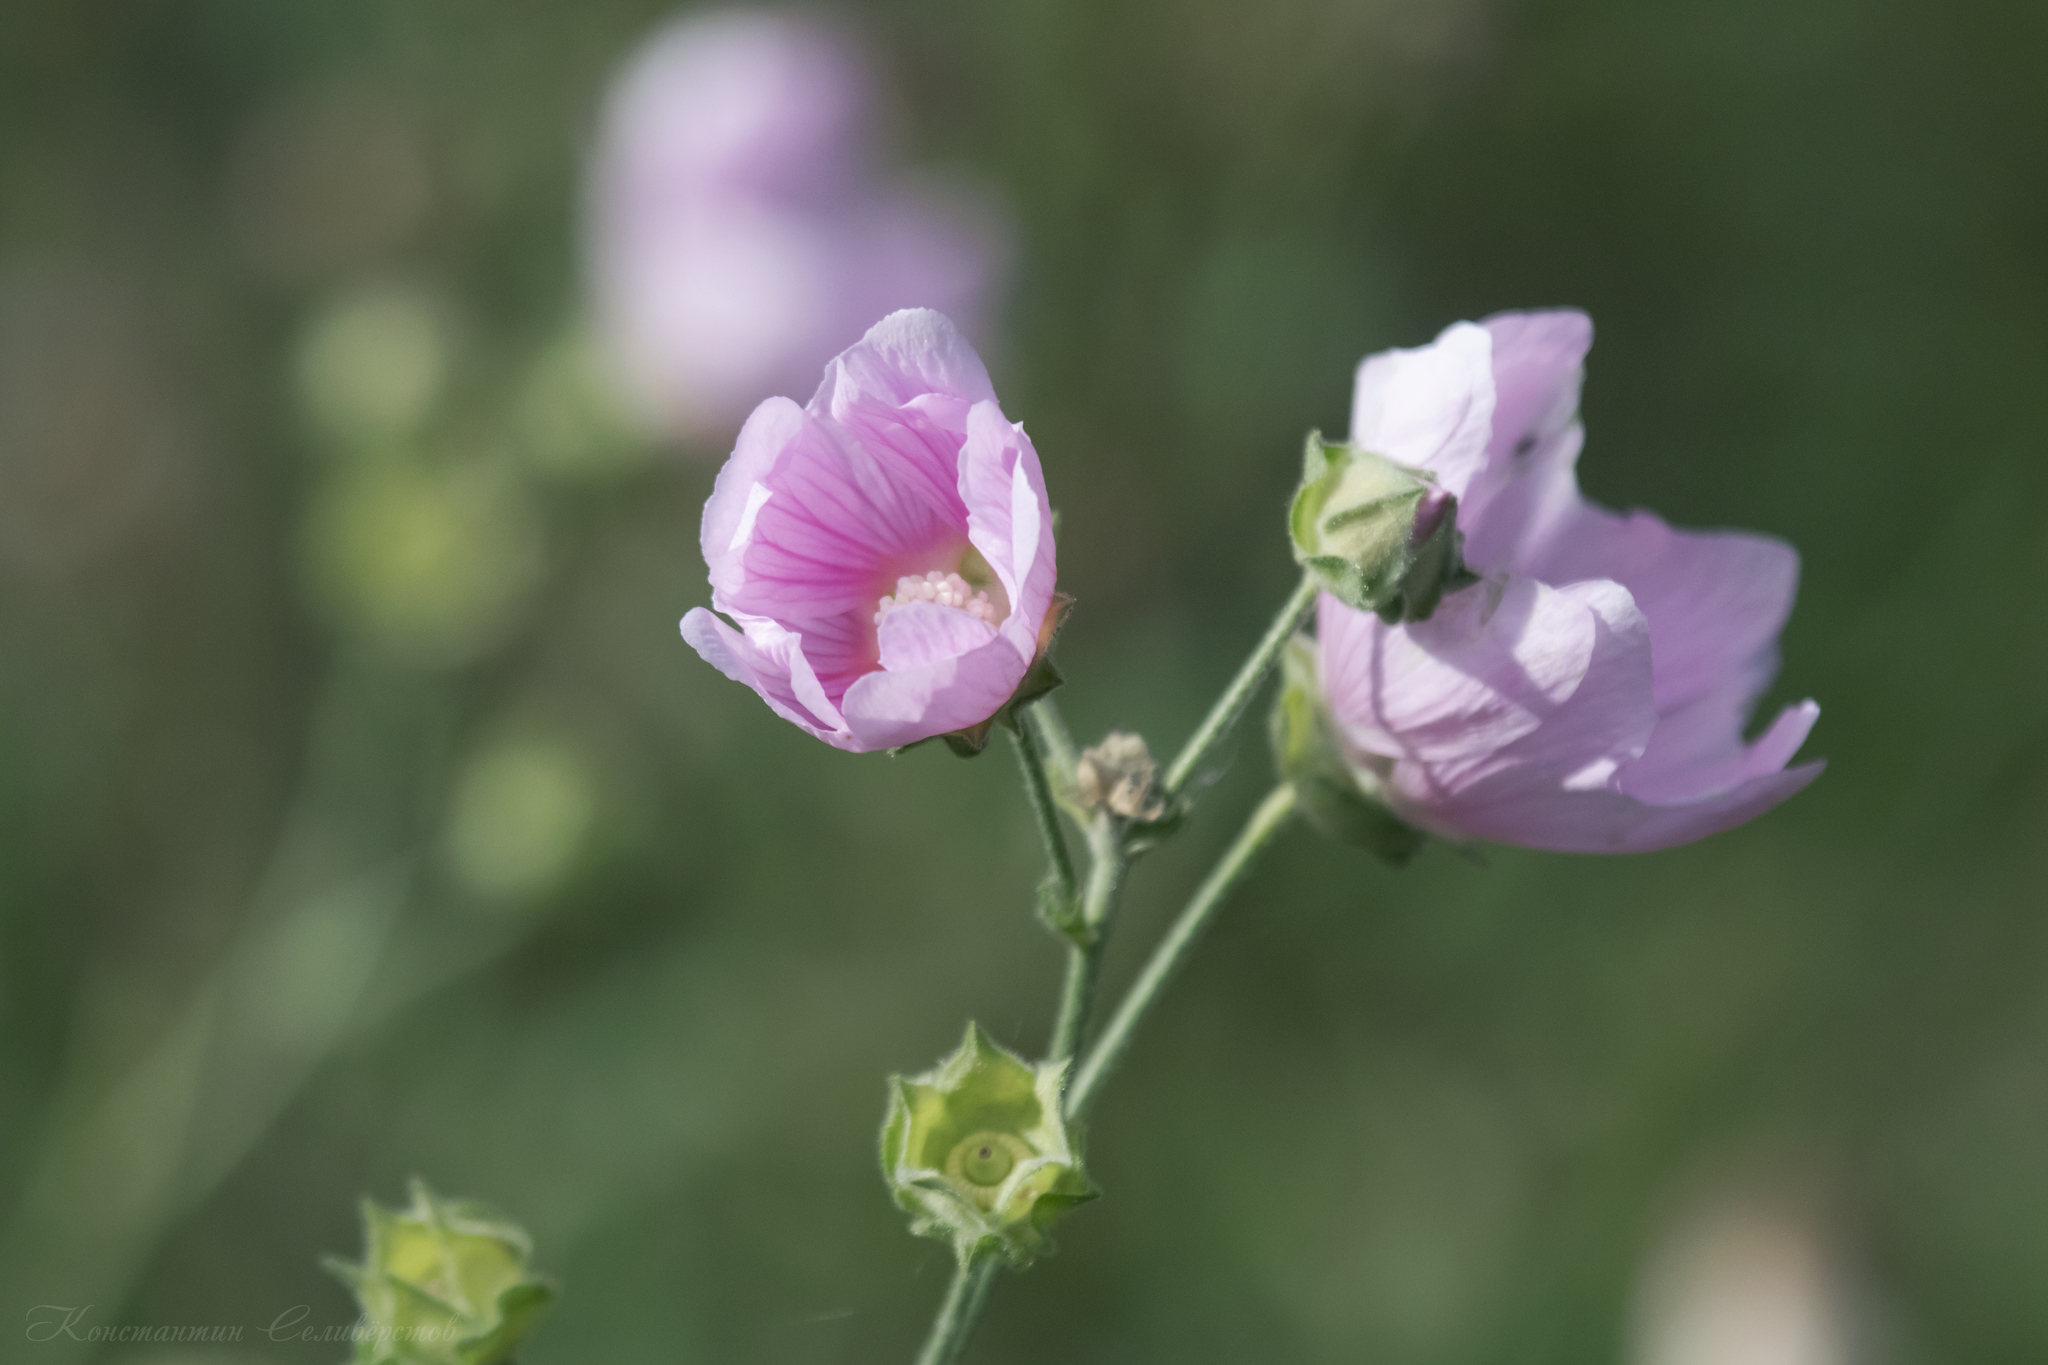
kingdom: Plantae
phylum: Tracheophyta
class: Magnoliopsida
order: Malvales
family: Malvaceae
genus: Malva
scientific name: Malva thuringiaca
